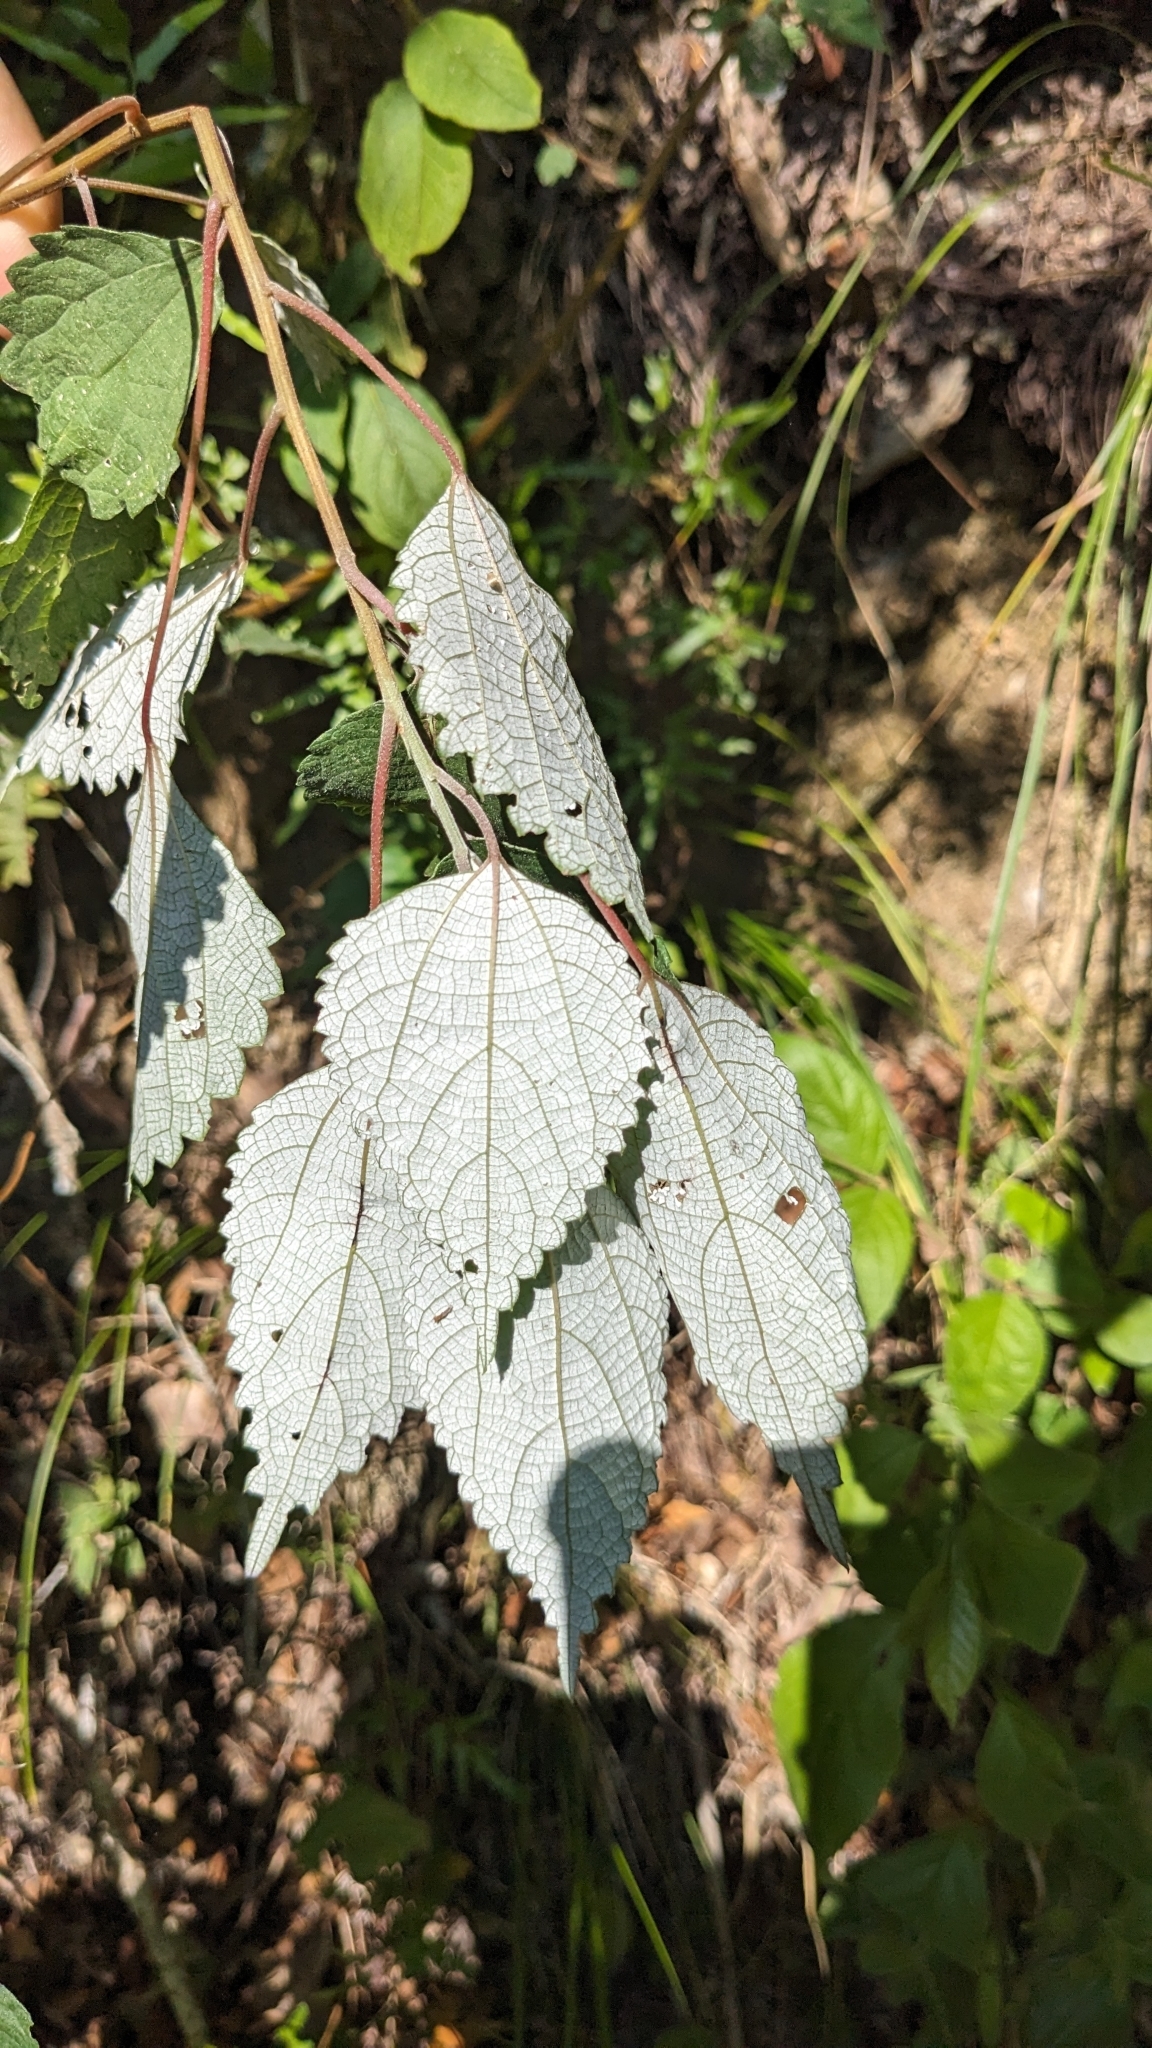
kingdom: Plantae
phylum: Tracheophyta
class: Magnoliopsida
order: Rosales
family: Urticaceae
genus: Boehmeria
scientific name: Boehmeria nivea
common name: Ramie chinese grass
